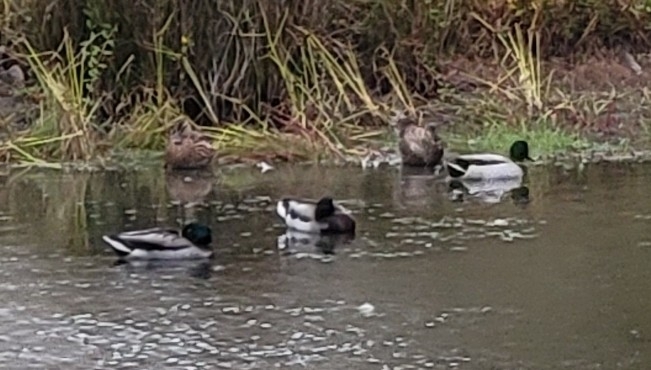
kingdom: Animalia
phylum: Chordata
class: Aves
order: Anseriformes
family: Anatidae
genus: Anas
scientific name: Anas platyrhynchos
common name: Mallard
